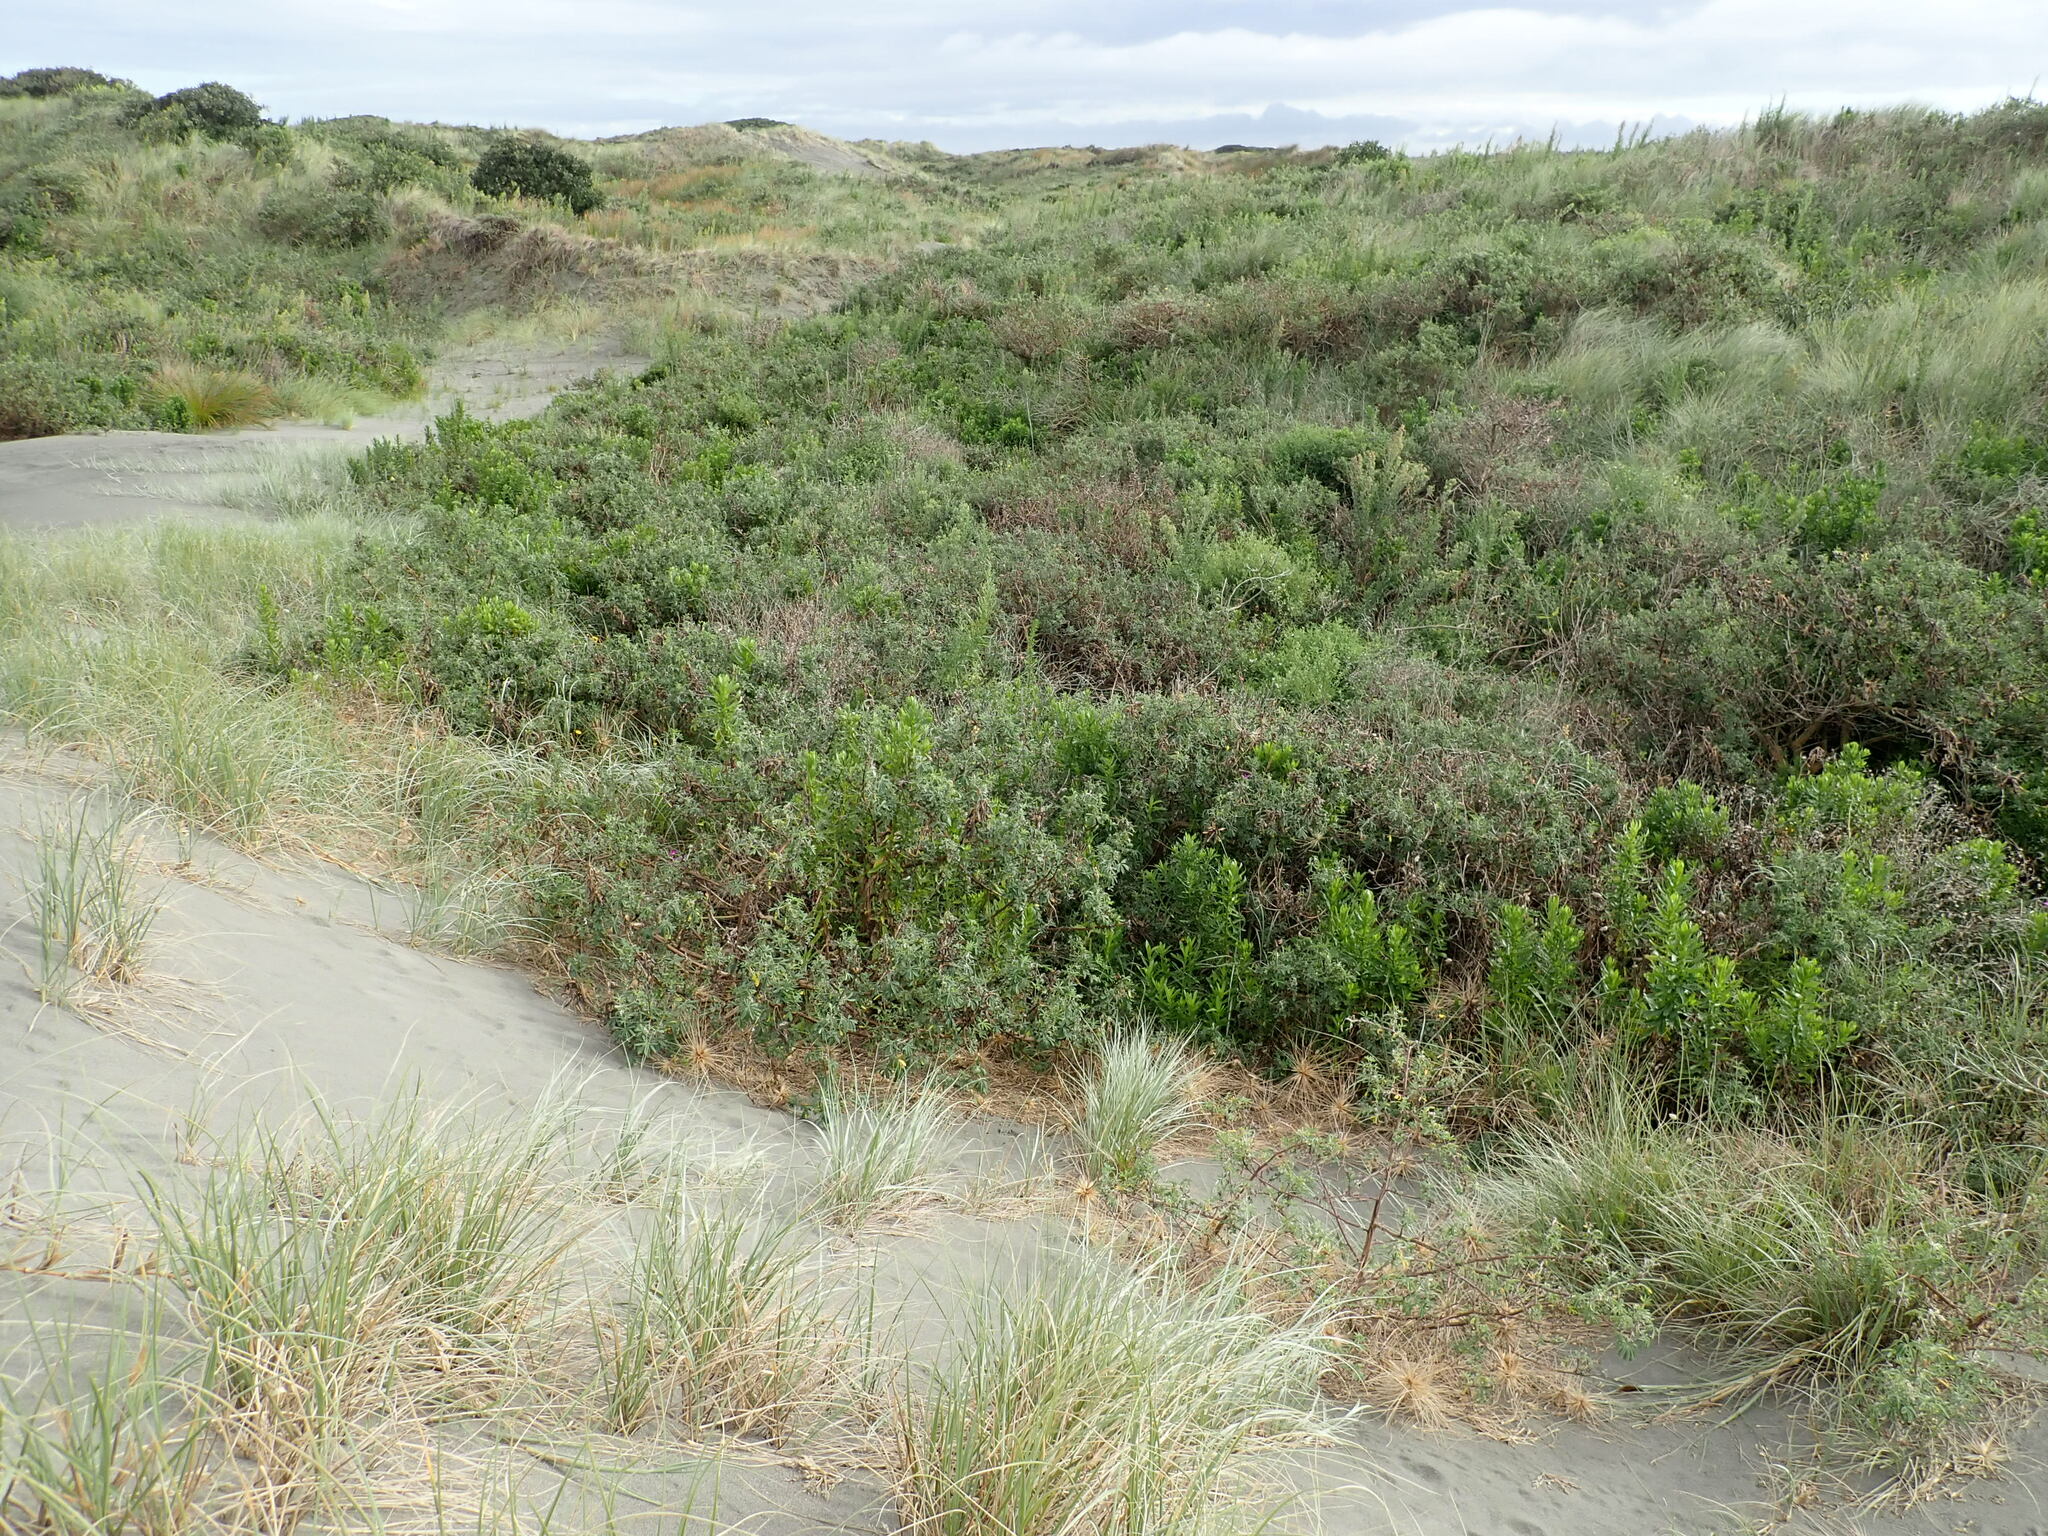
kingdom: Plantae
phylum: Tracheophyta
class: Magnoliopsida
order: Asterales
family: Asteraceae
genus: Senecio
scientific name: Senecio glastifolius
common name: Woad-leaved ragwort
